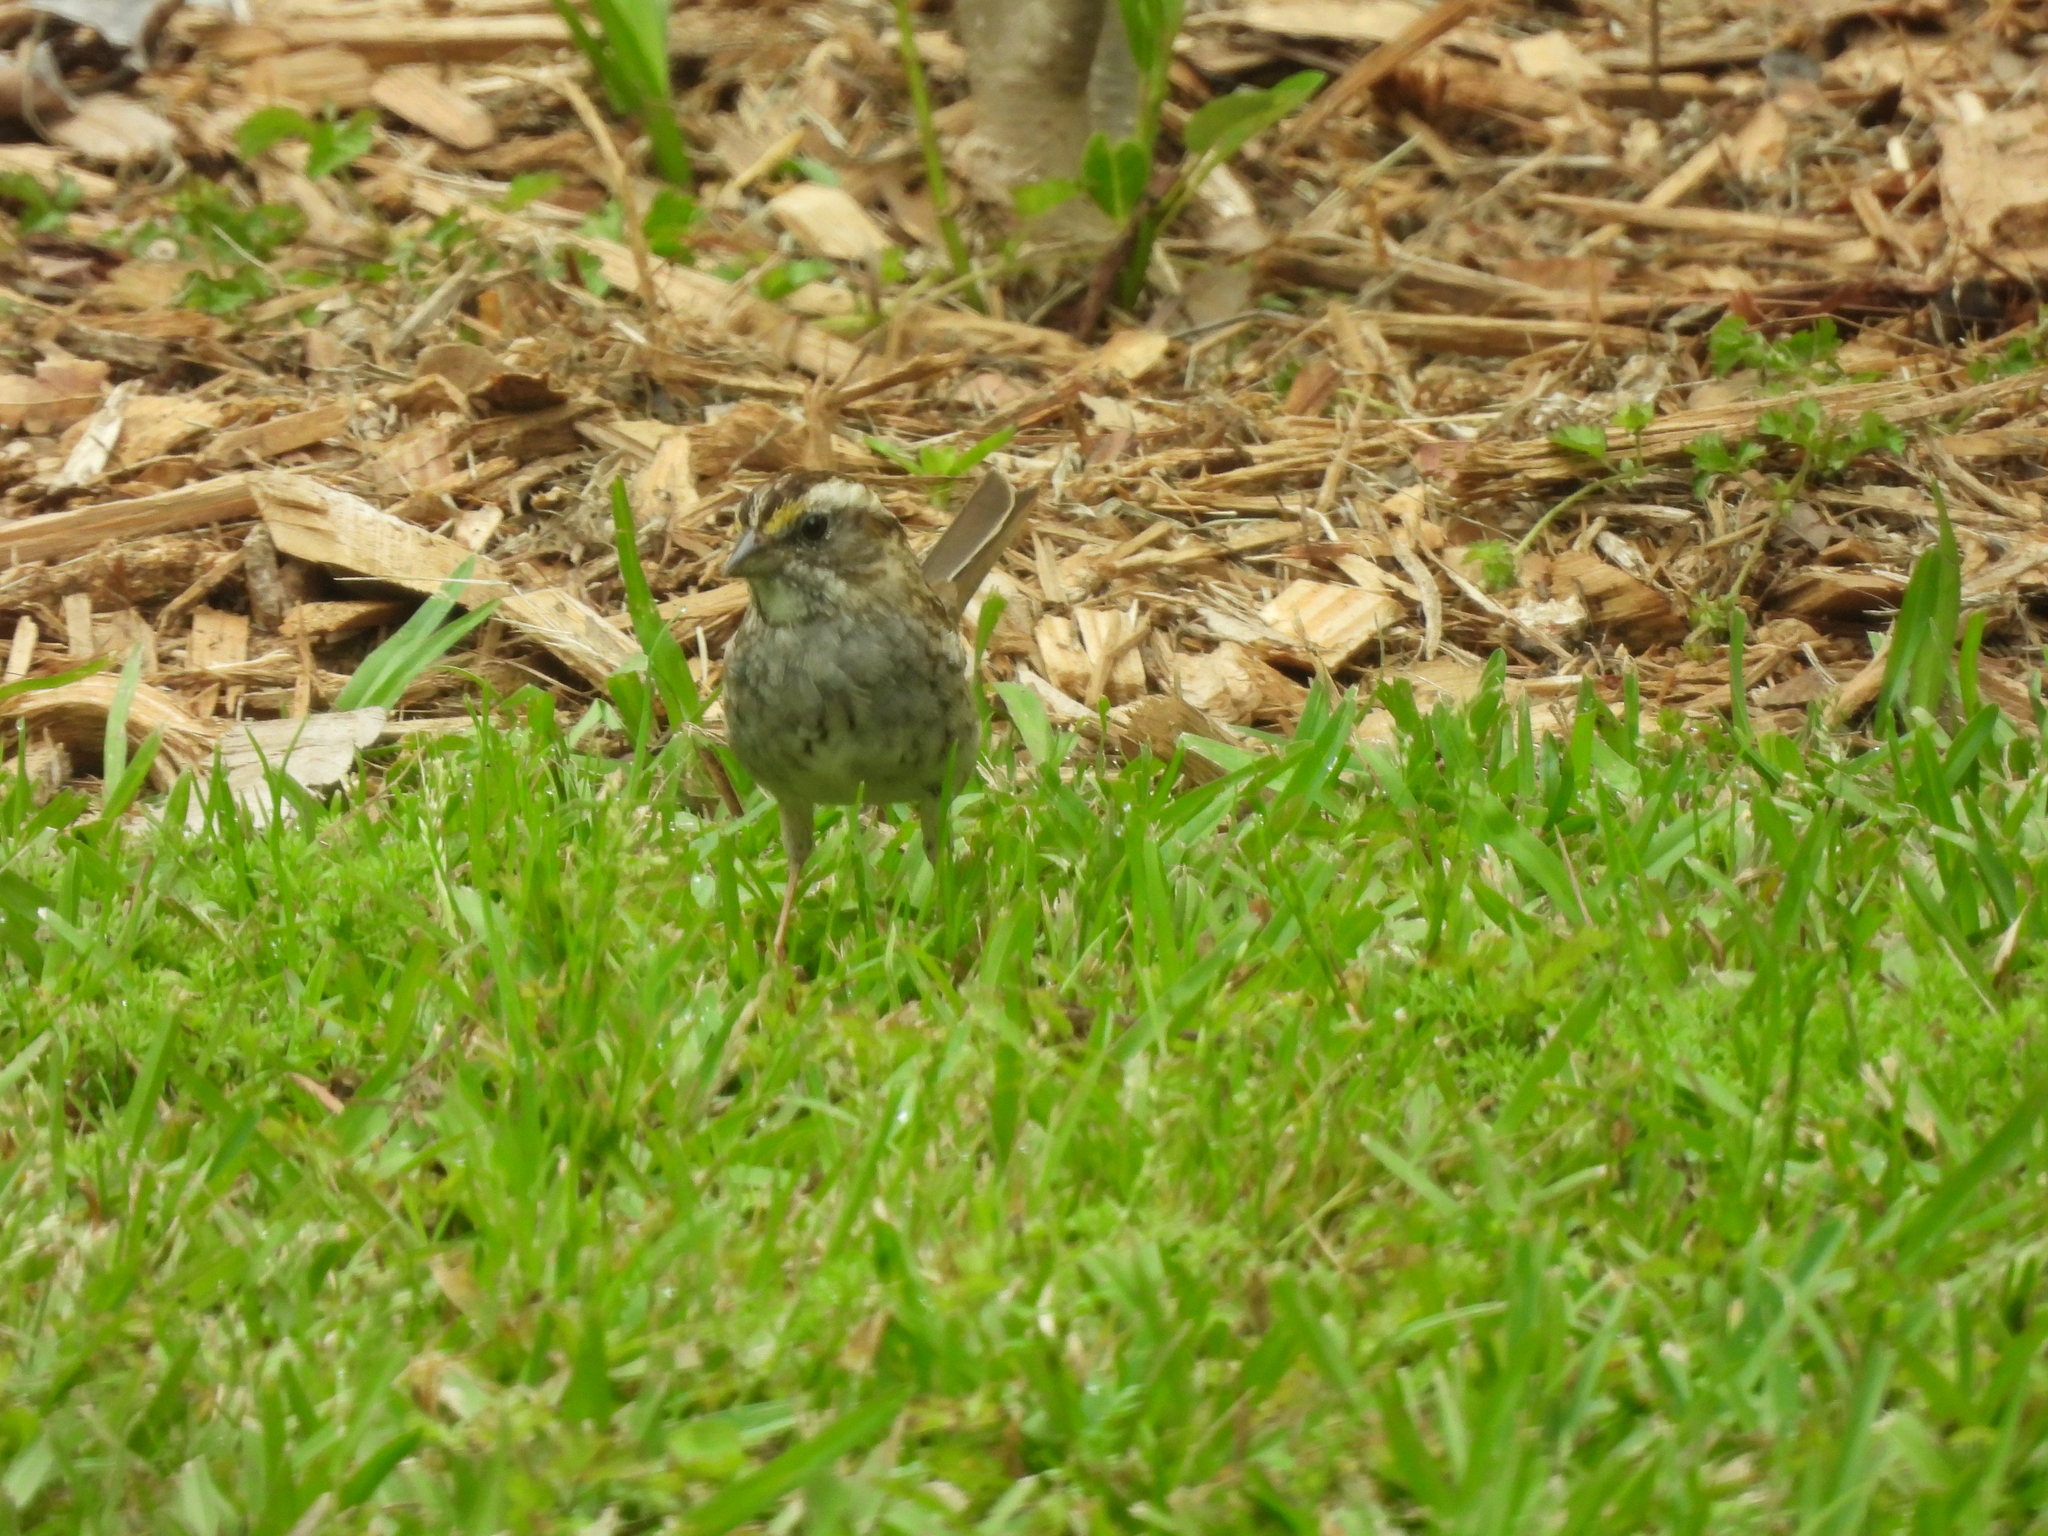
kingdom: Animalia
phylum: Chordata
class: Aves
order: Passeriformes
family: Passerellidae
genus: Zonotrichia
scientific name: Zonotrichia albicollis
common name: White-throated sparrow
